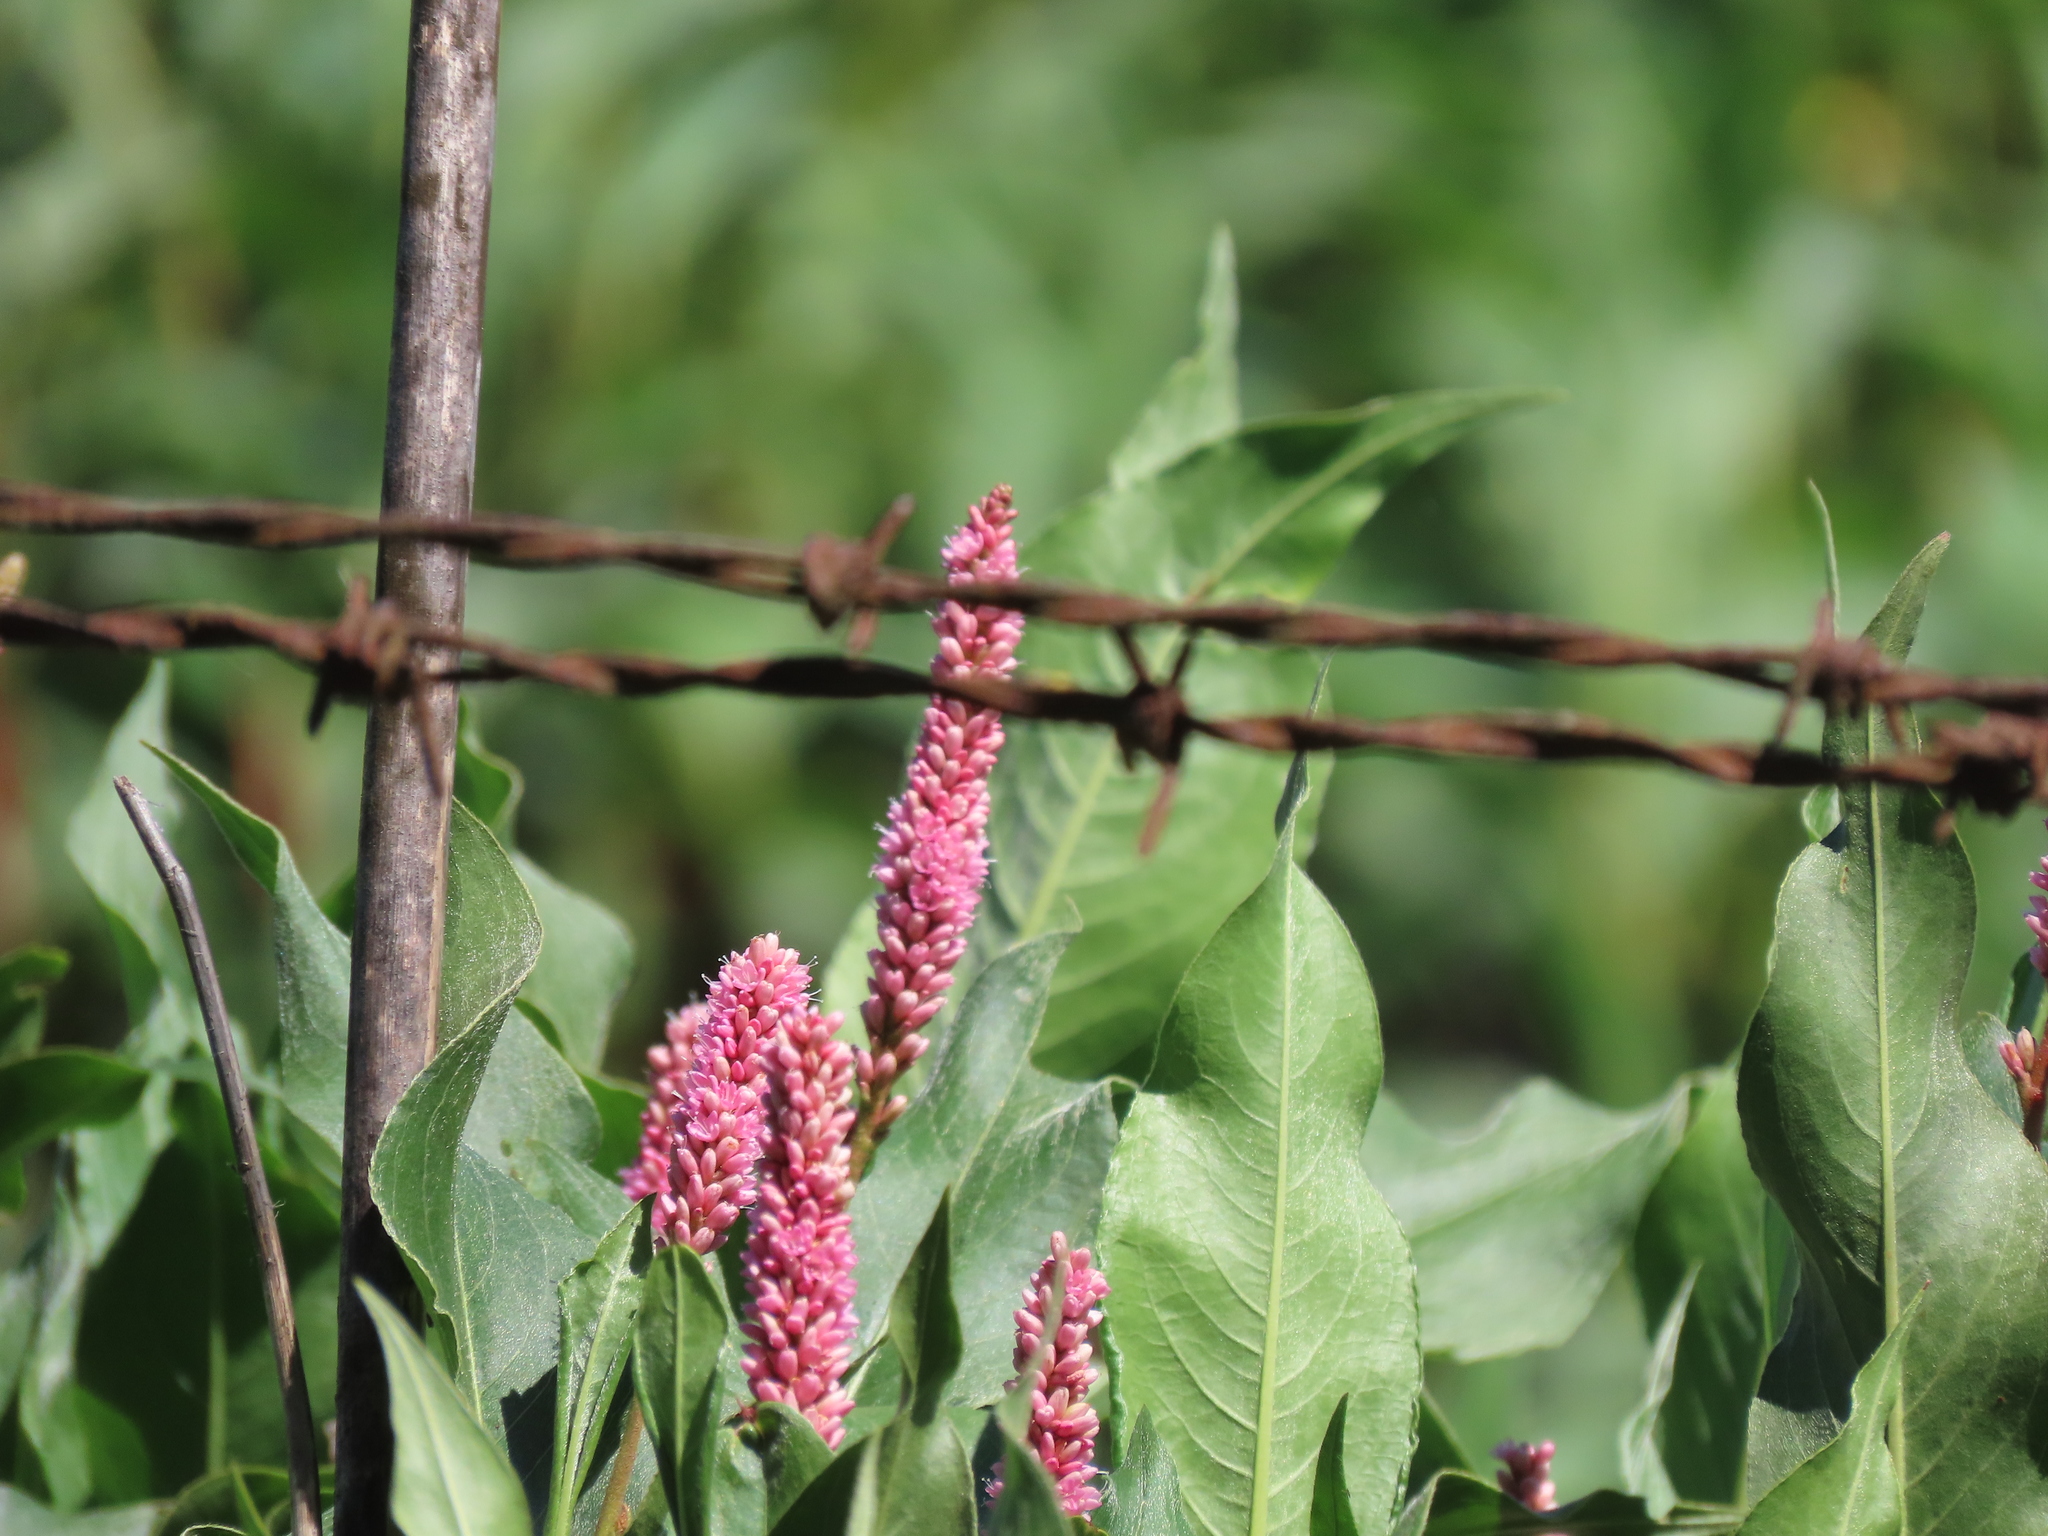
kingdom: Plantae
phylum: Tracheophyta
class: Magnoliopsida
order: Caryophyllales
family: Polygonaceae
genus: Persicaria
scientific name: Persicaria amphibia
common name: Amphibious bistort
